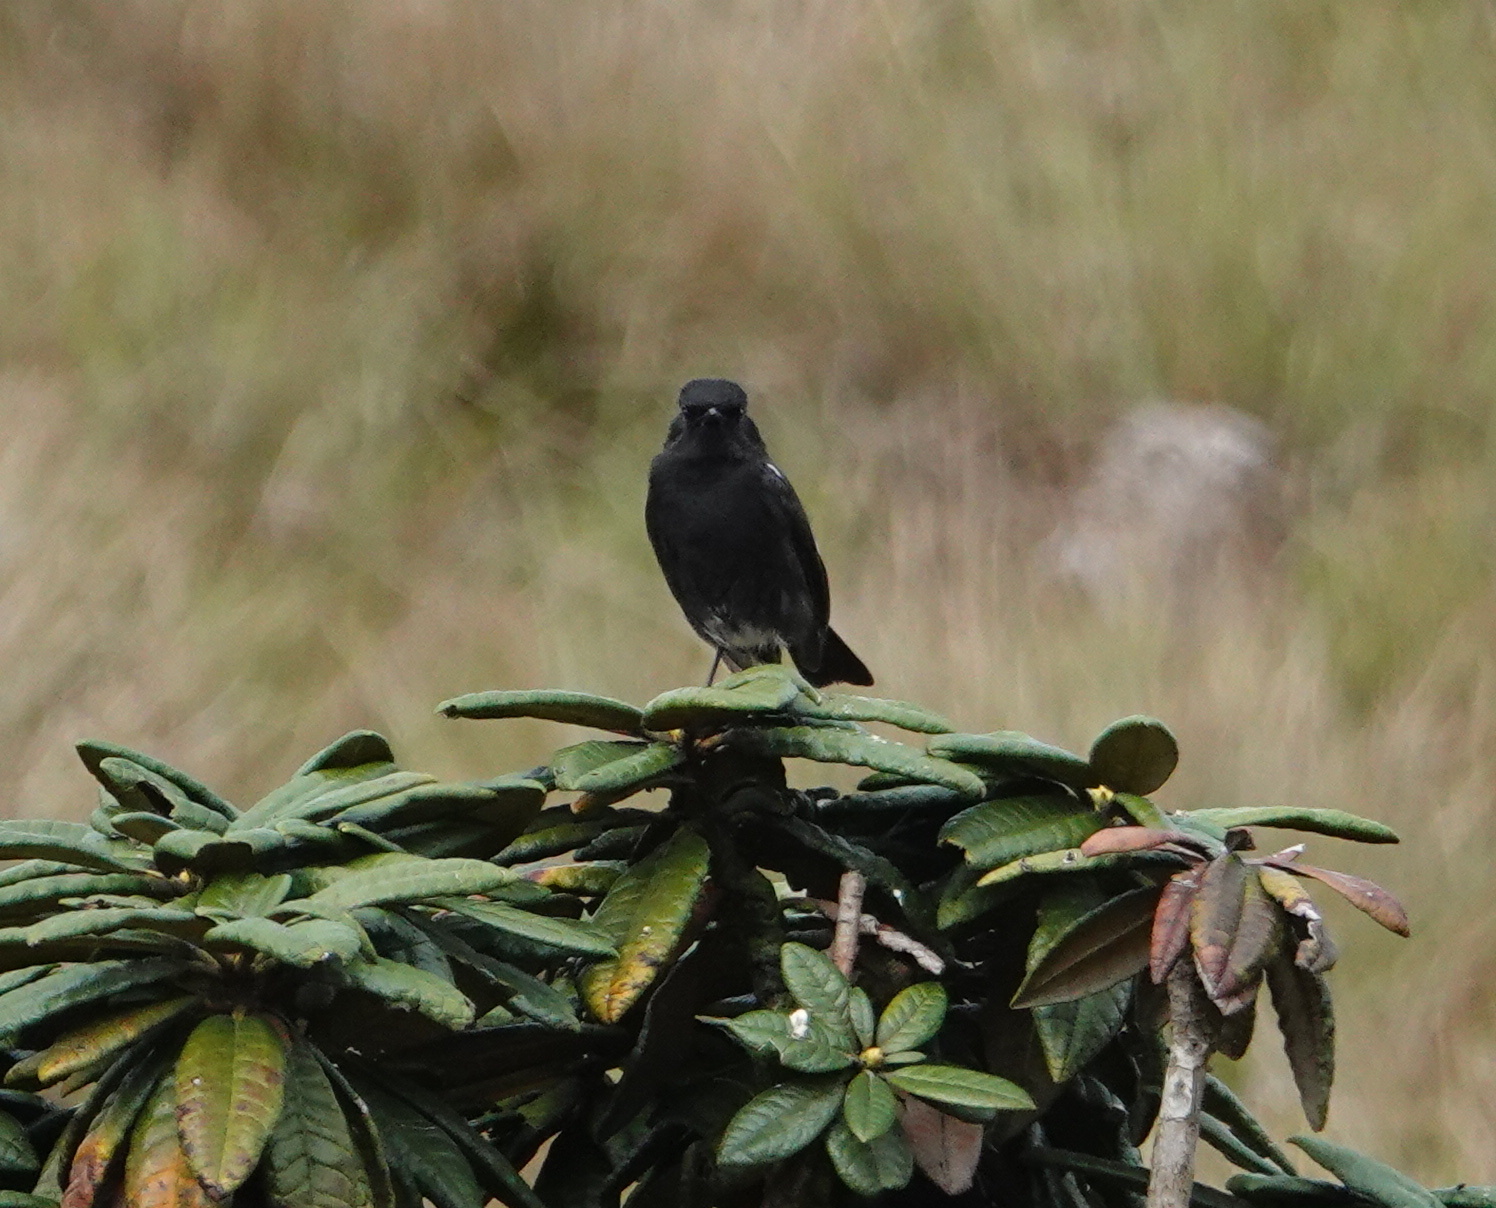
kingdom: Animalia
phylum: Chordata
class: Aves
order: Passeriformes
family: Muscicapidae
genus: Saxicola
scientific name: Saxicola caprata
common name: Pied bush chat
